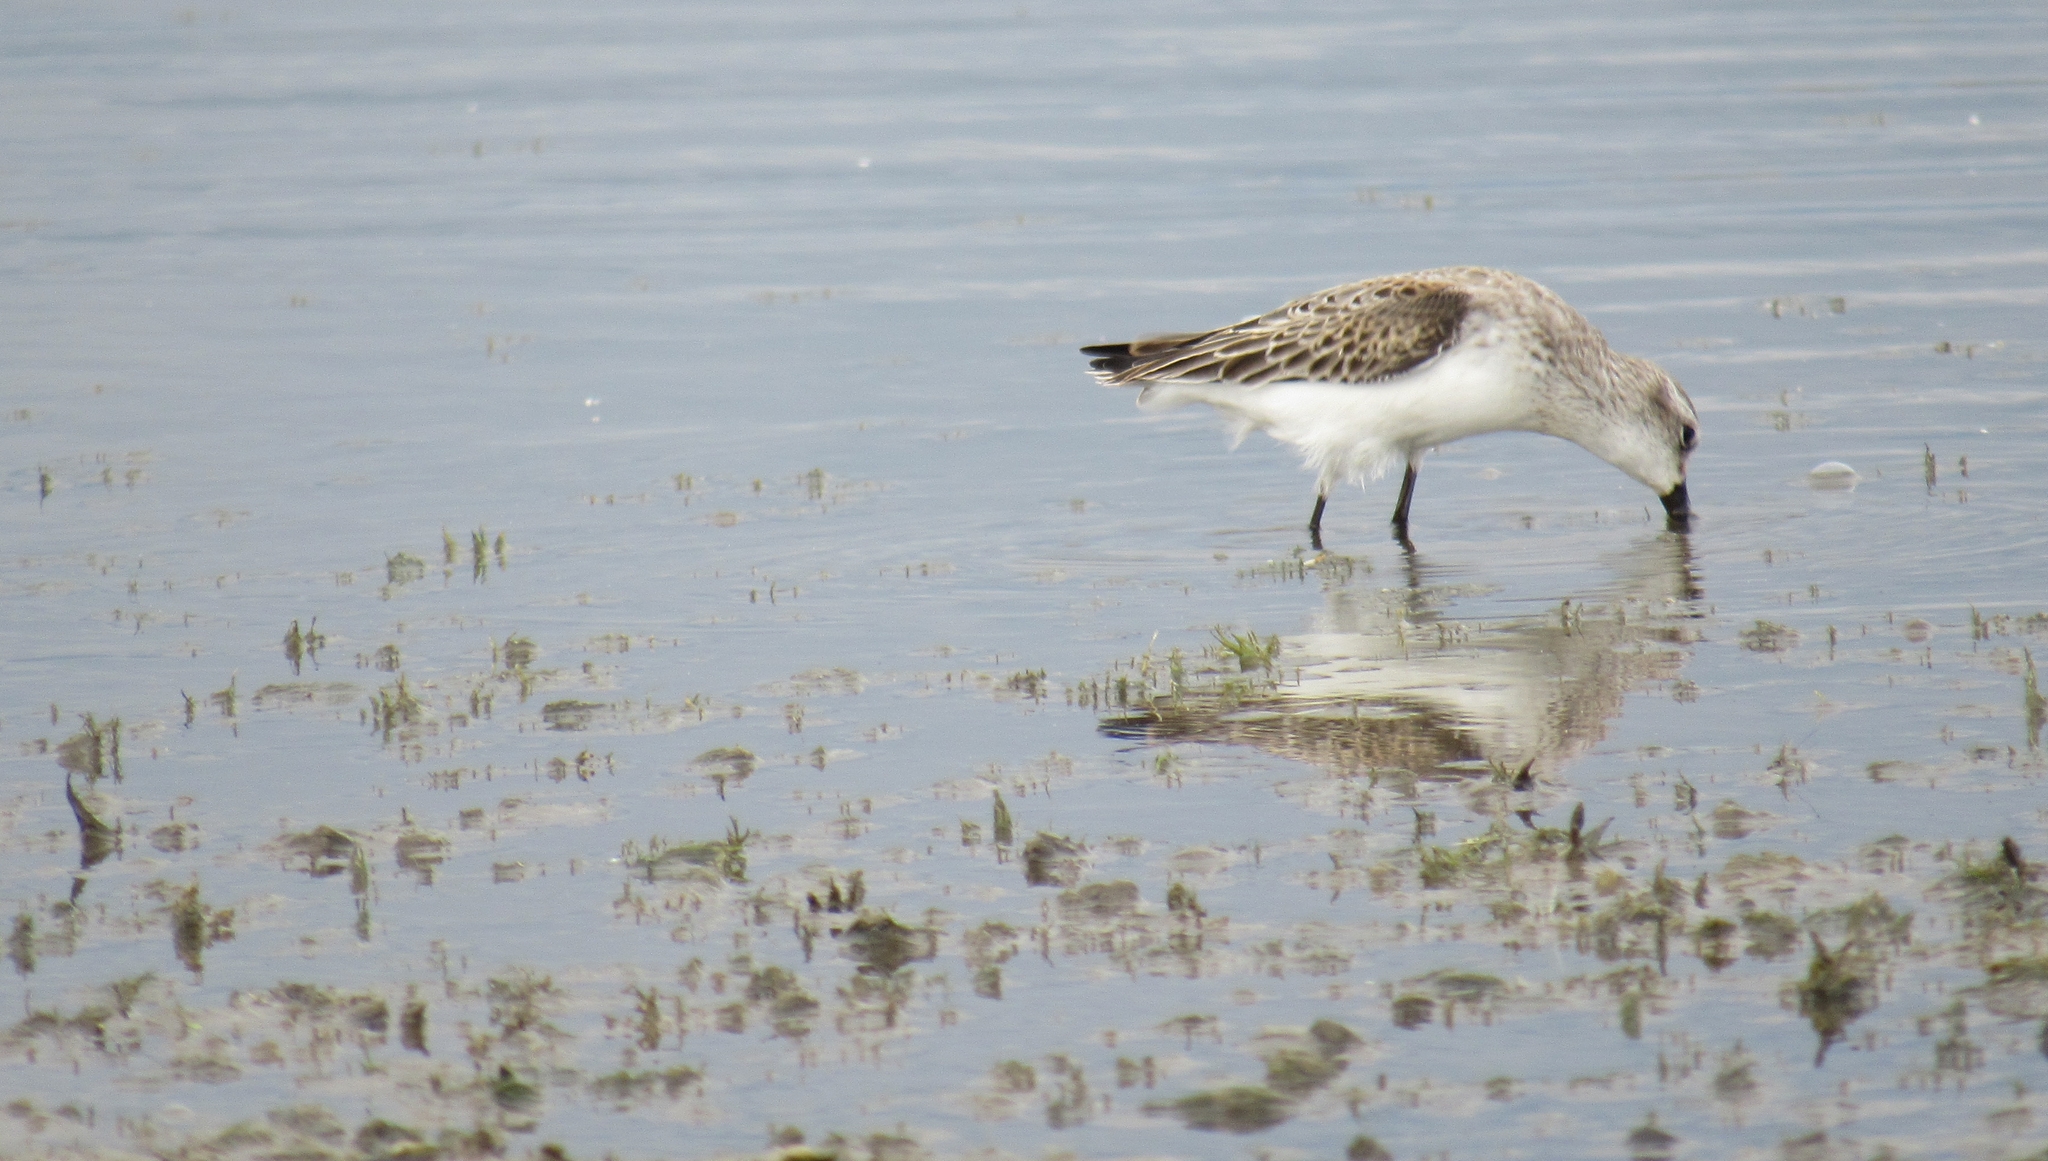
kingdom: Animalia
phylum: Chordata
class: Aves
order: Charadriiformes
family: Scolopacidae
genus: Calidris
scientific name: Calidris mauri
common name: Western sandpiper
